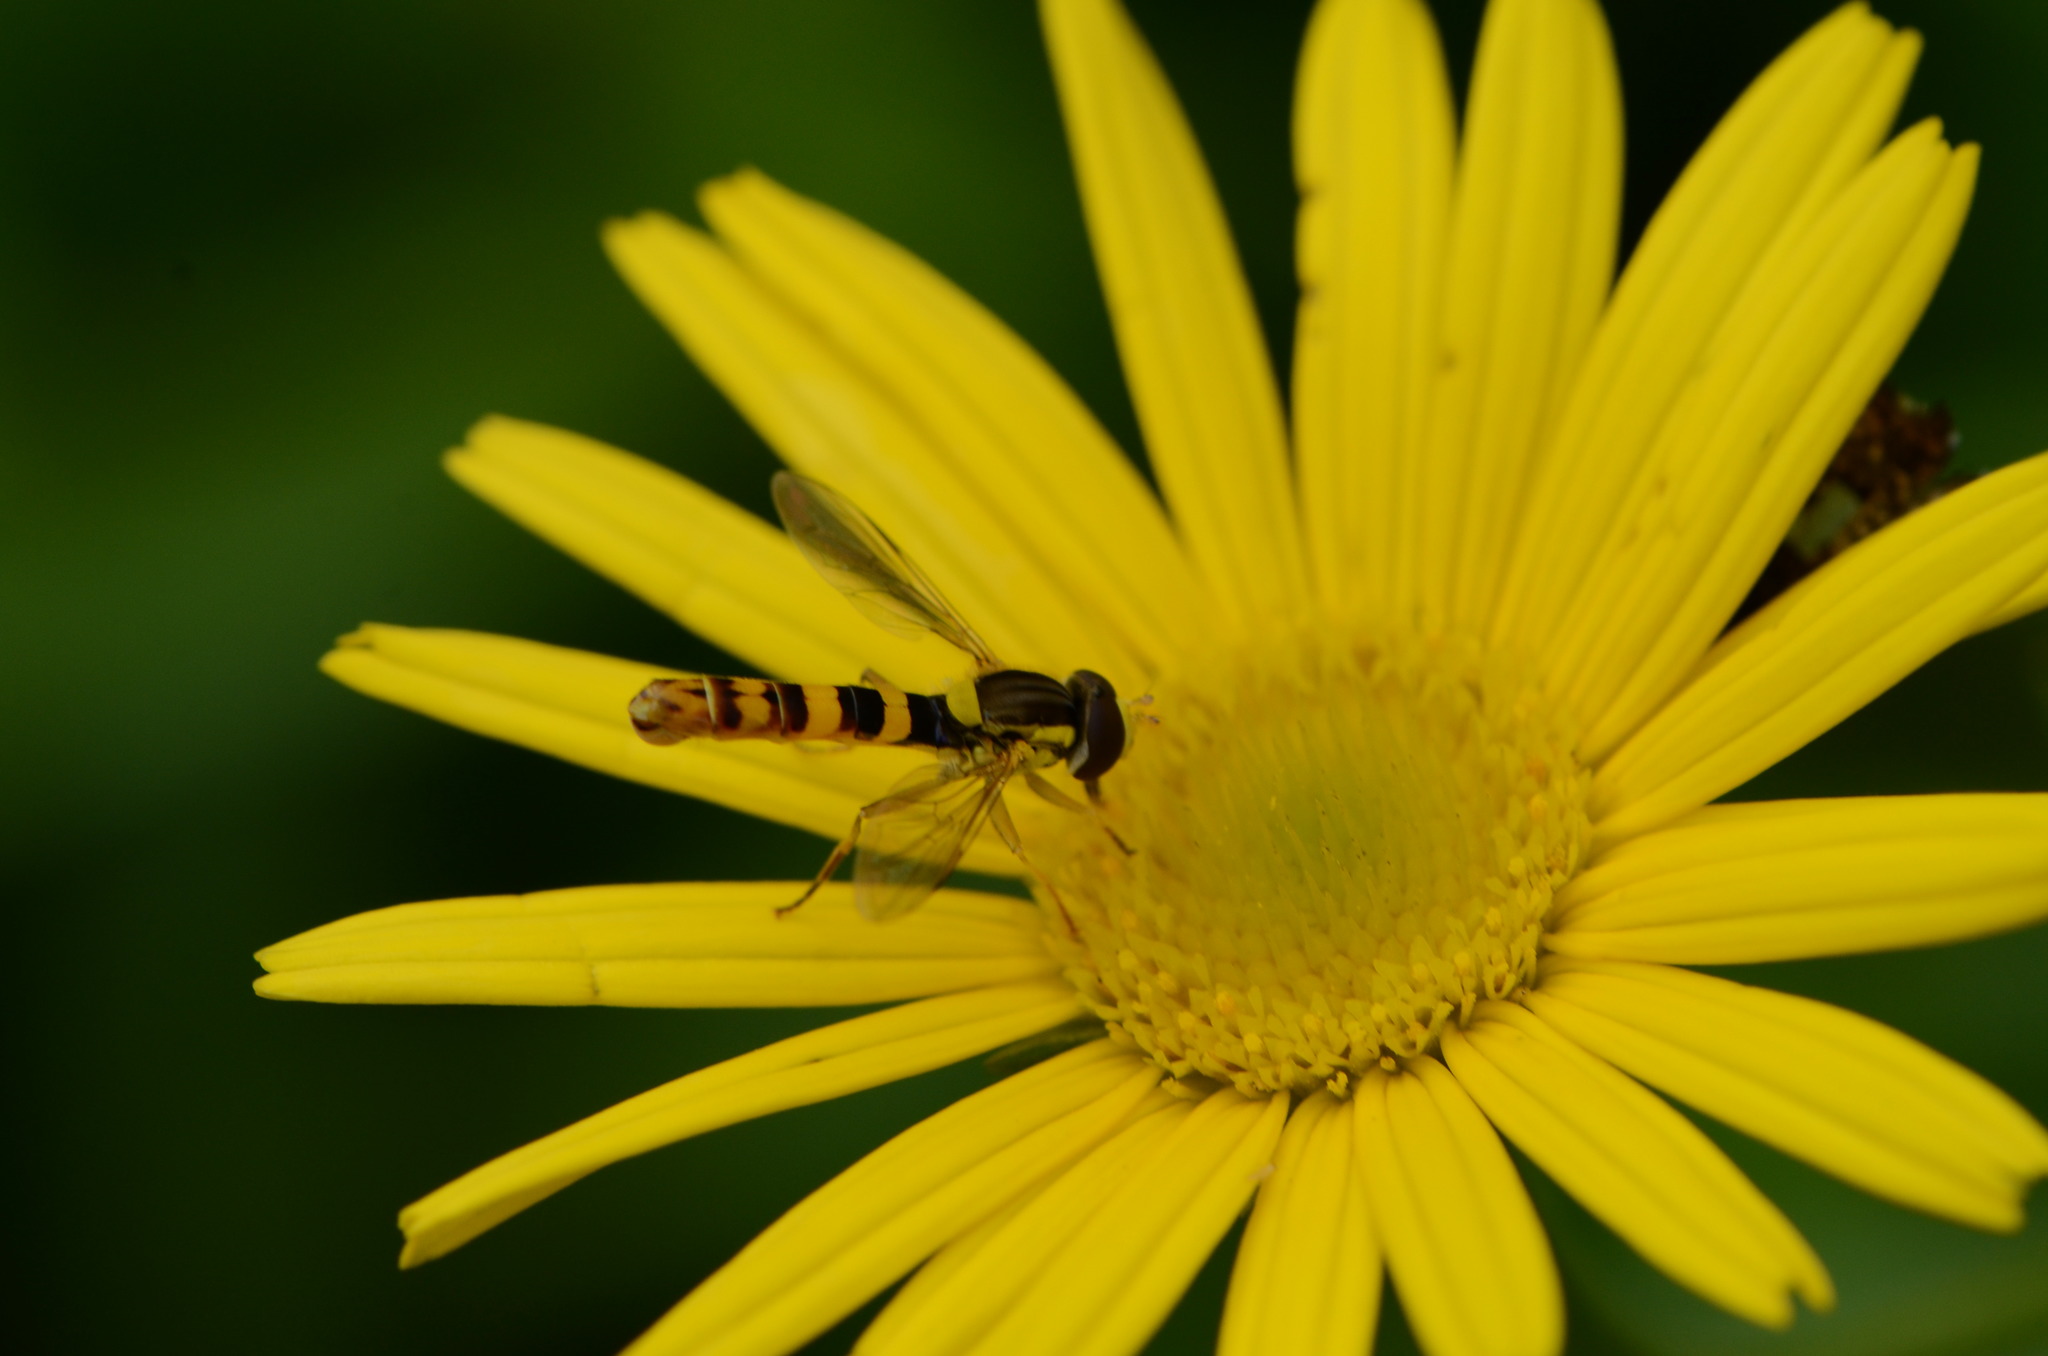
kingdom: Animalia
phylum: Arthropoda
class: Insecta
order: Diptera
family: Syrphidae
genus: Sphaerophoria
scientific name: Sphaerophoria
